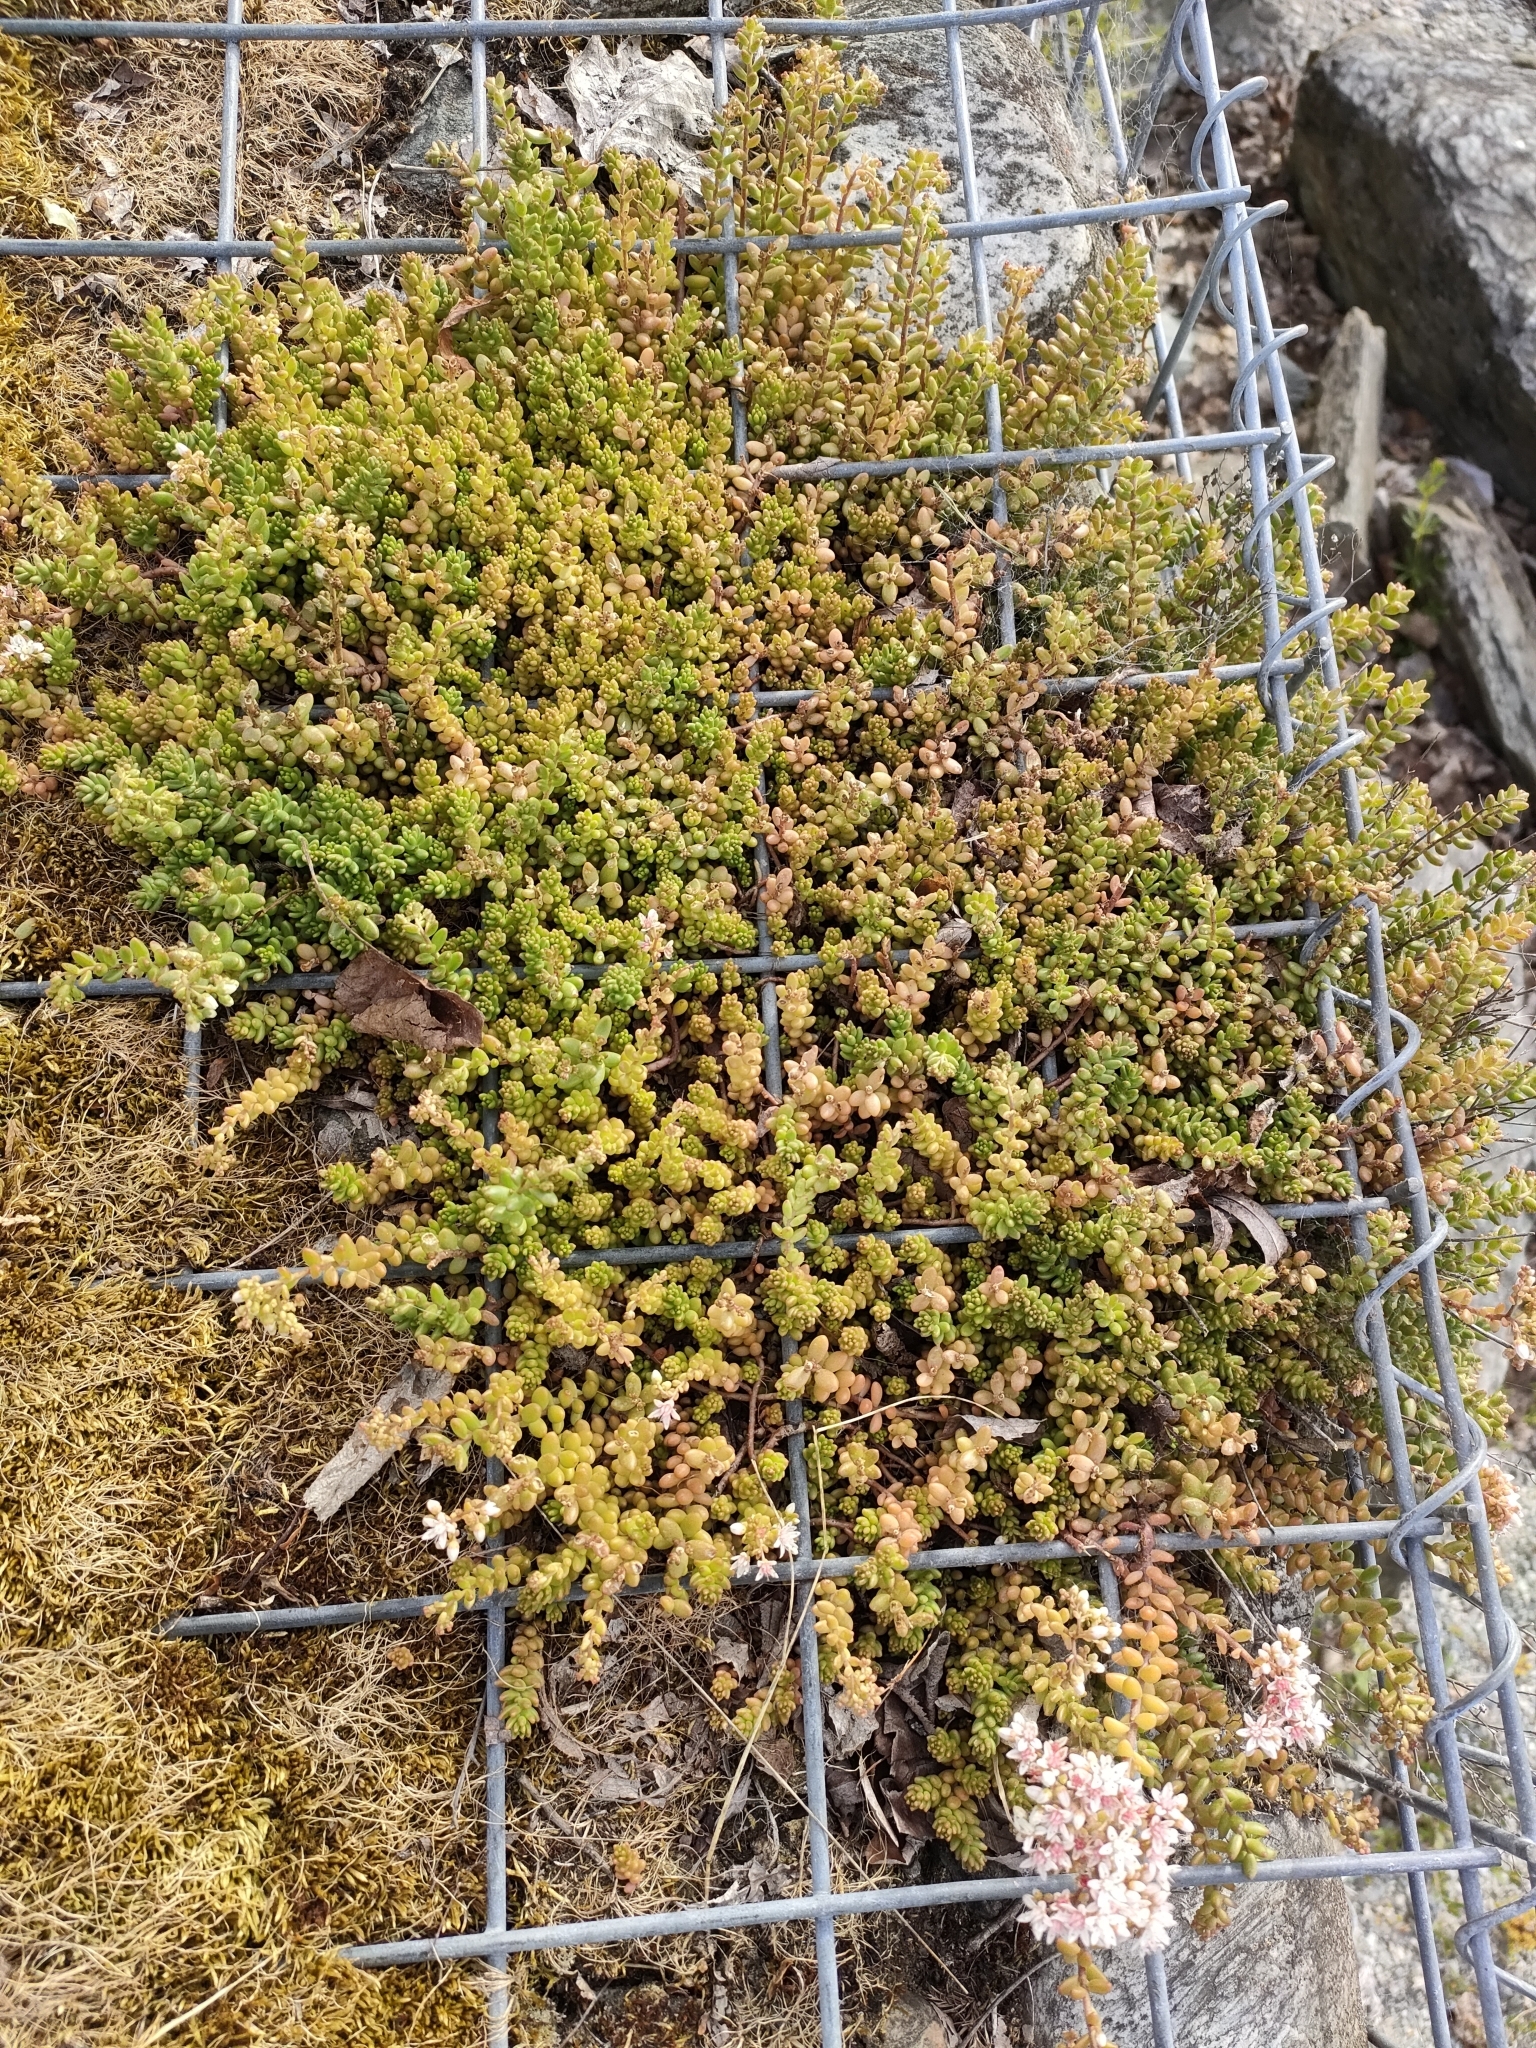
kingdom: Plantae
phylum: Tracheophyta
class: Magnoliopsida
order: Saxifragales
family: Crassulaceae
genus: Sedum
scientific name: Sedum album
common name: White stonecrop
